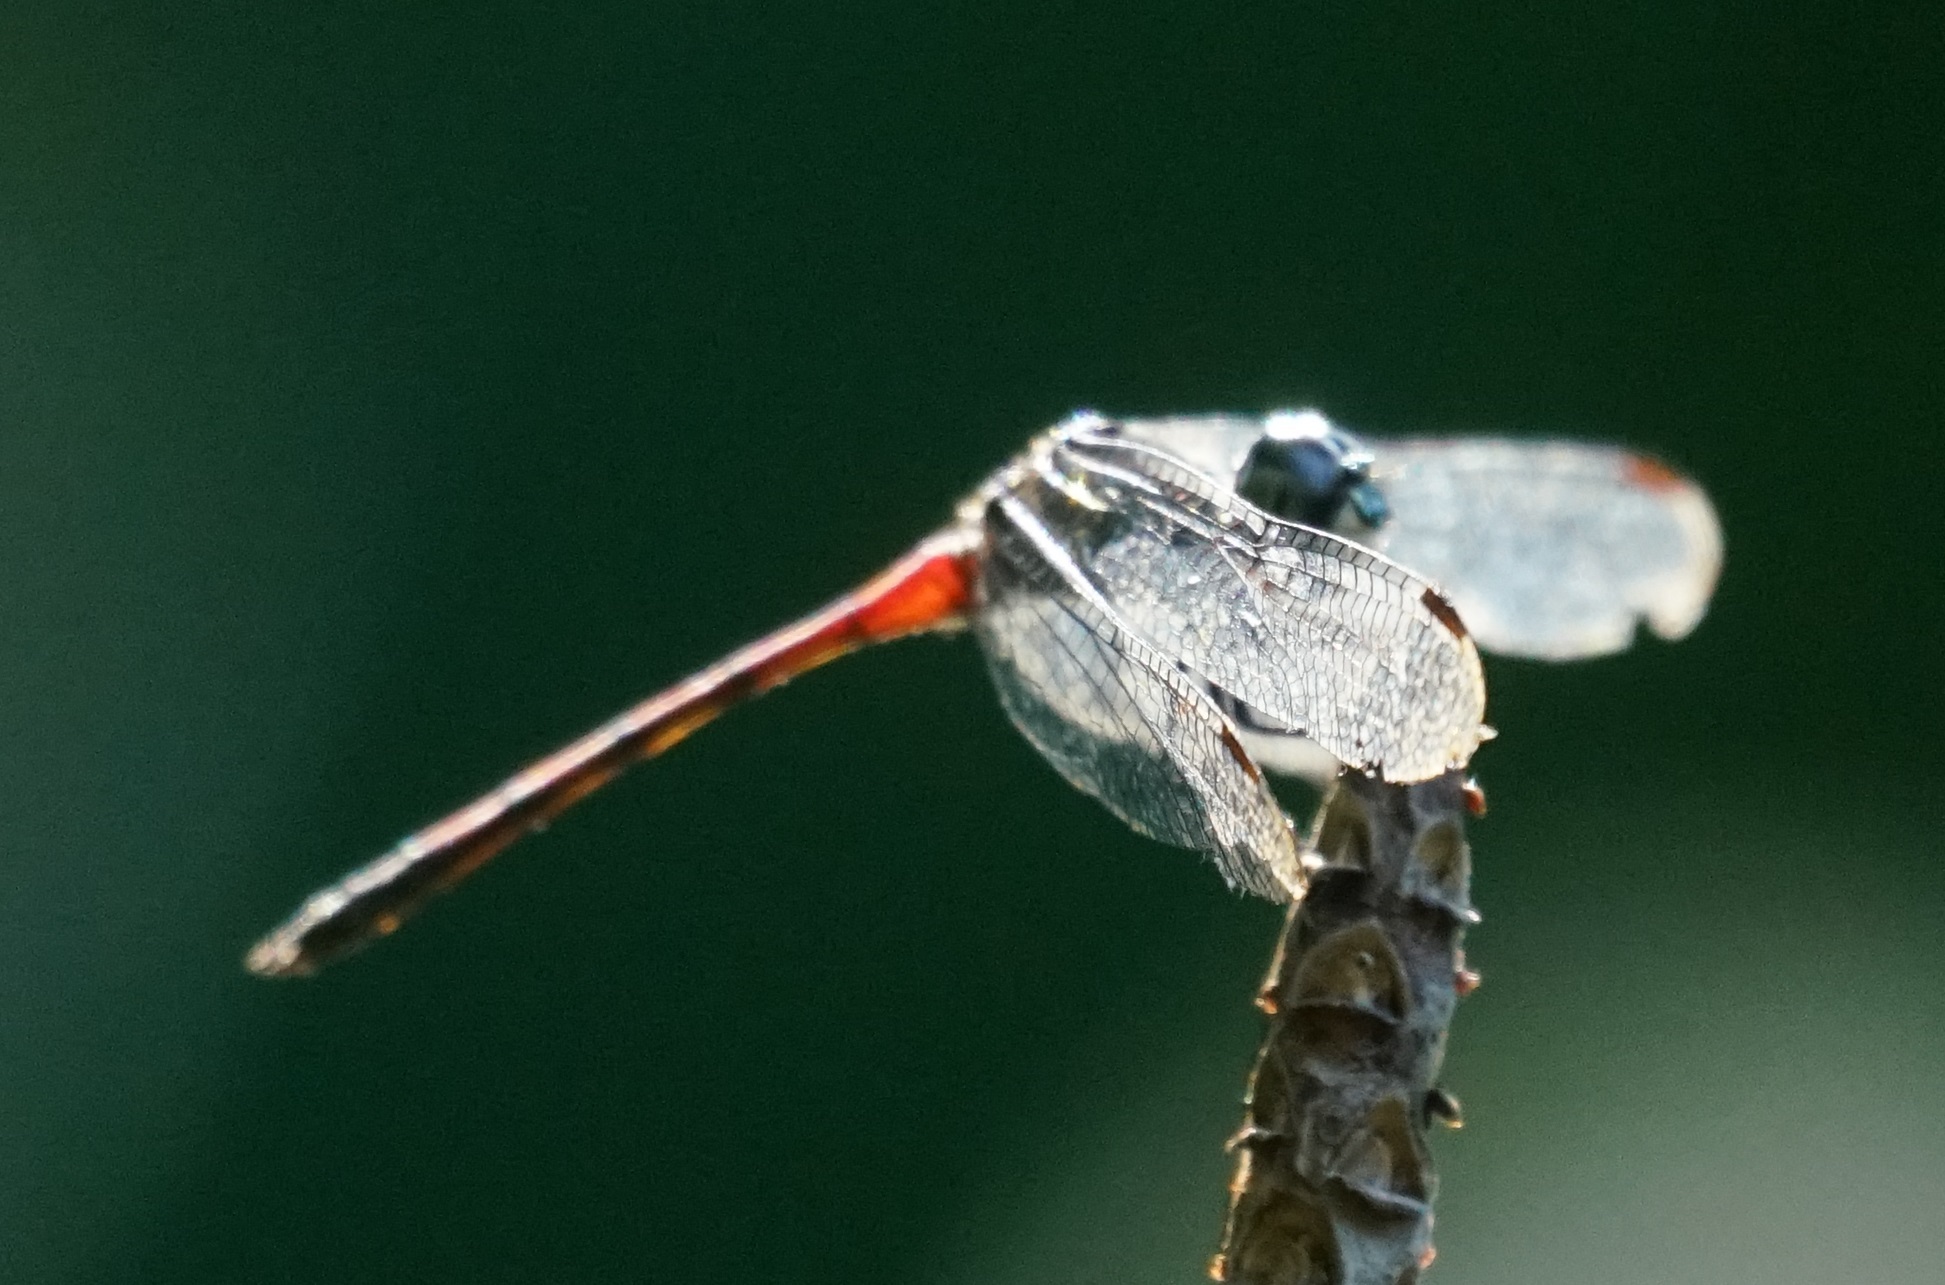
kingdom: Animalia
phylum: Arthropoda
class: Insecta
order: Odonata
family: Libellulidae
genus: Agrionoptera
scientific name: Agrionoptera insignis
